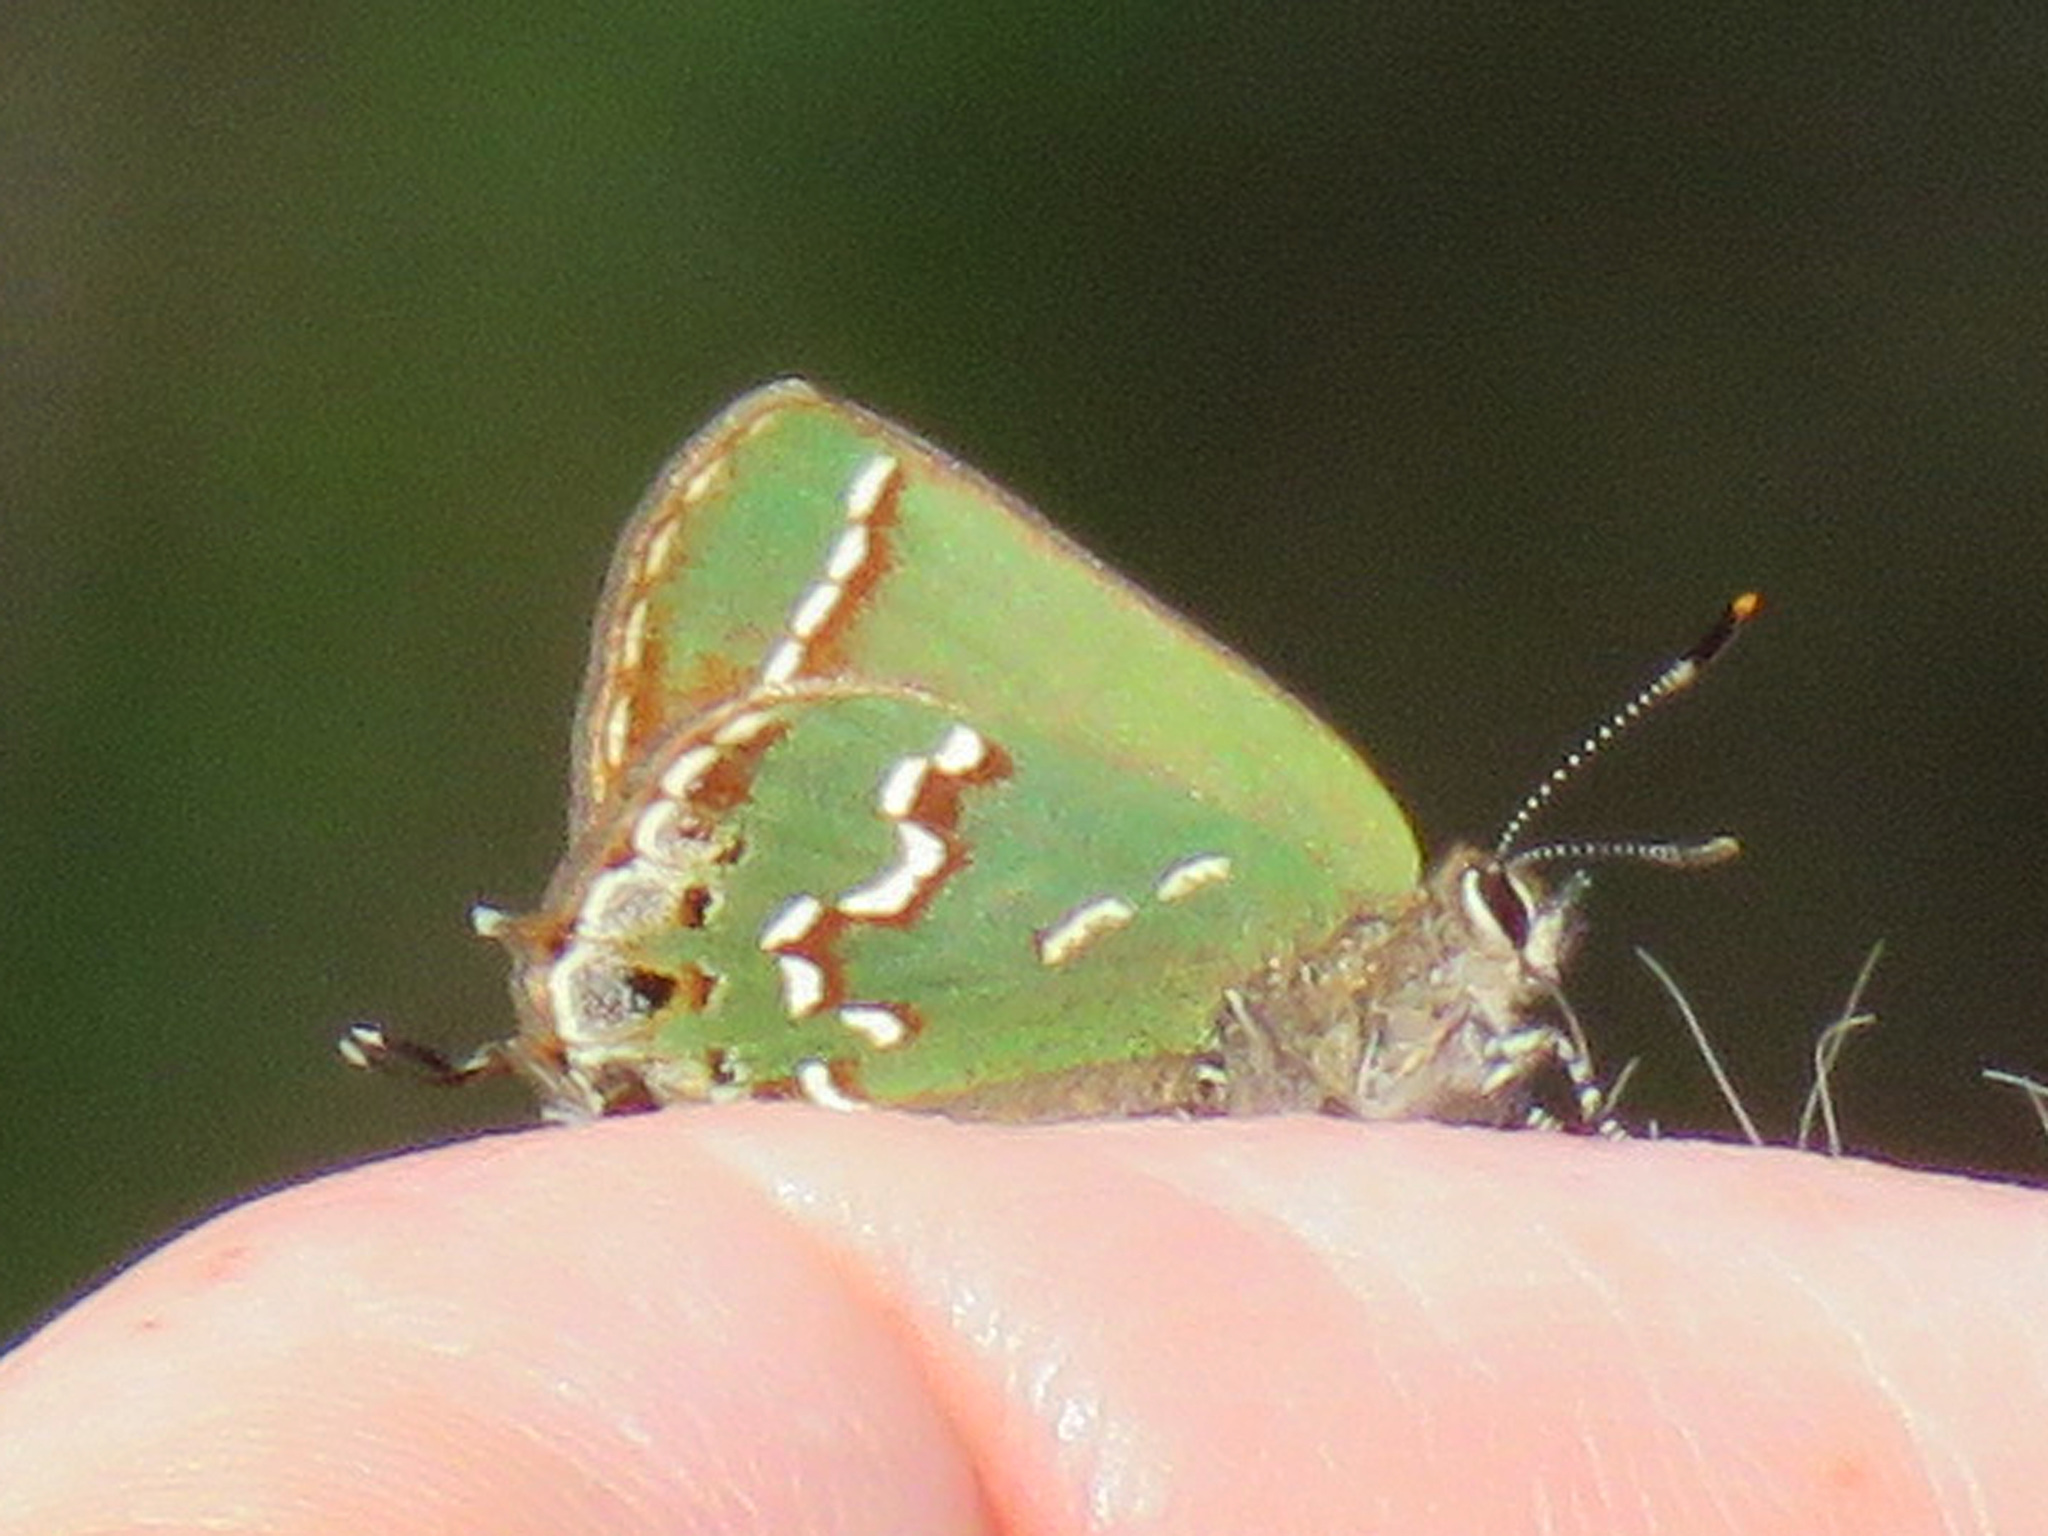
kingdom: Animalia
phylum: Arthropoda
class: Insecta
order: Lepidoptera
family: Lycaenidae
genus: Mitoura
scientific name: Mitoura gryneus
